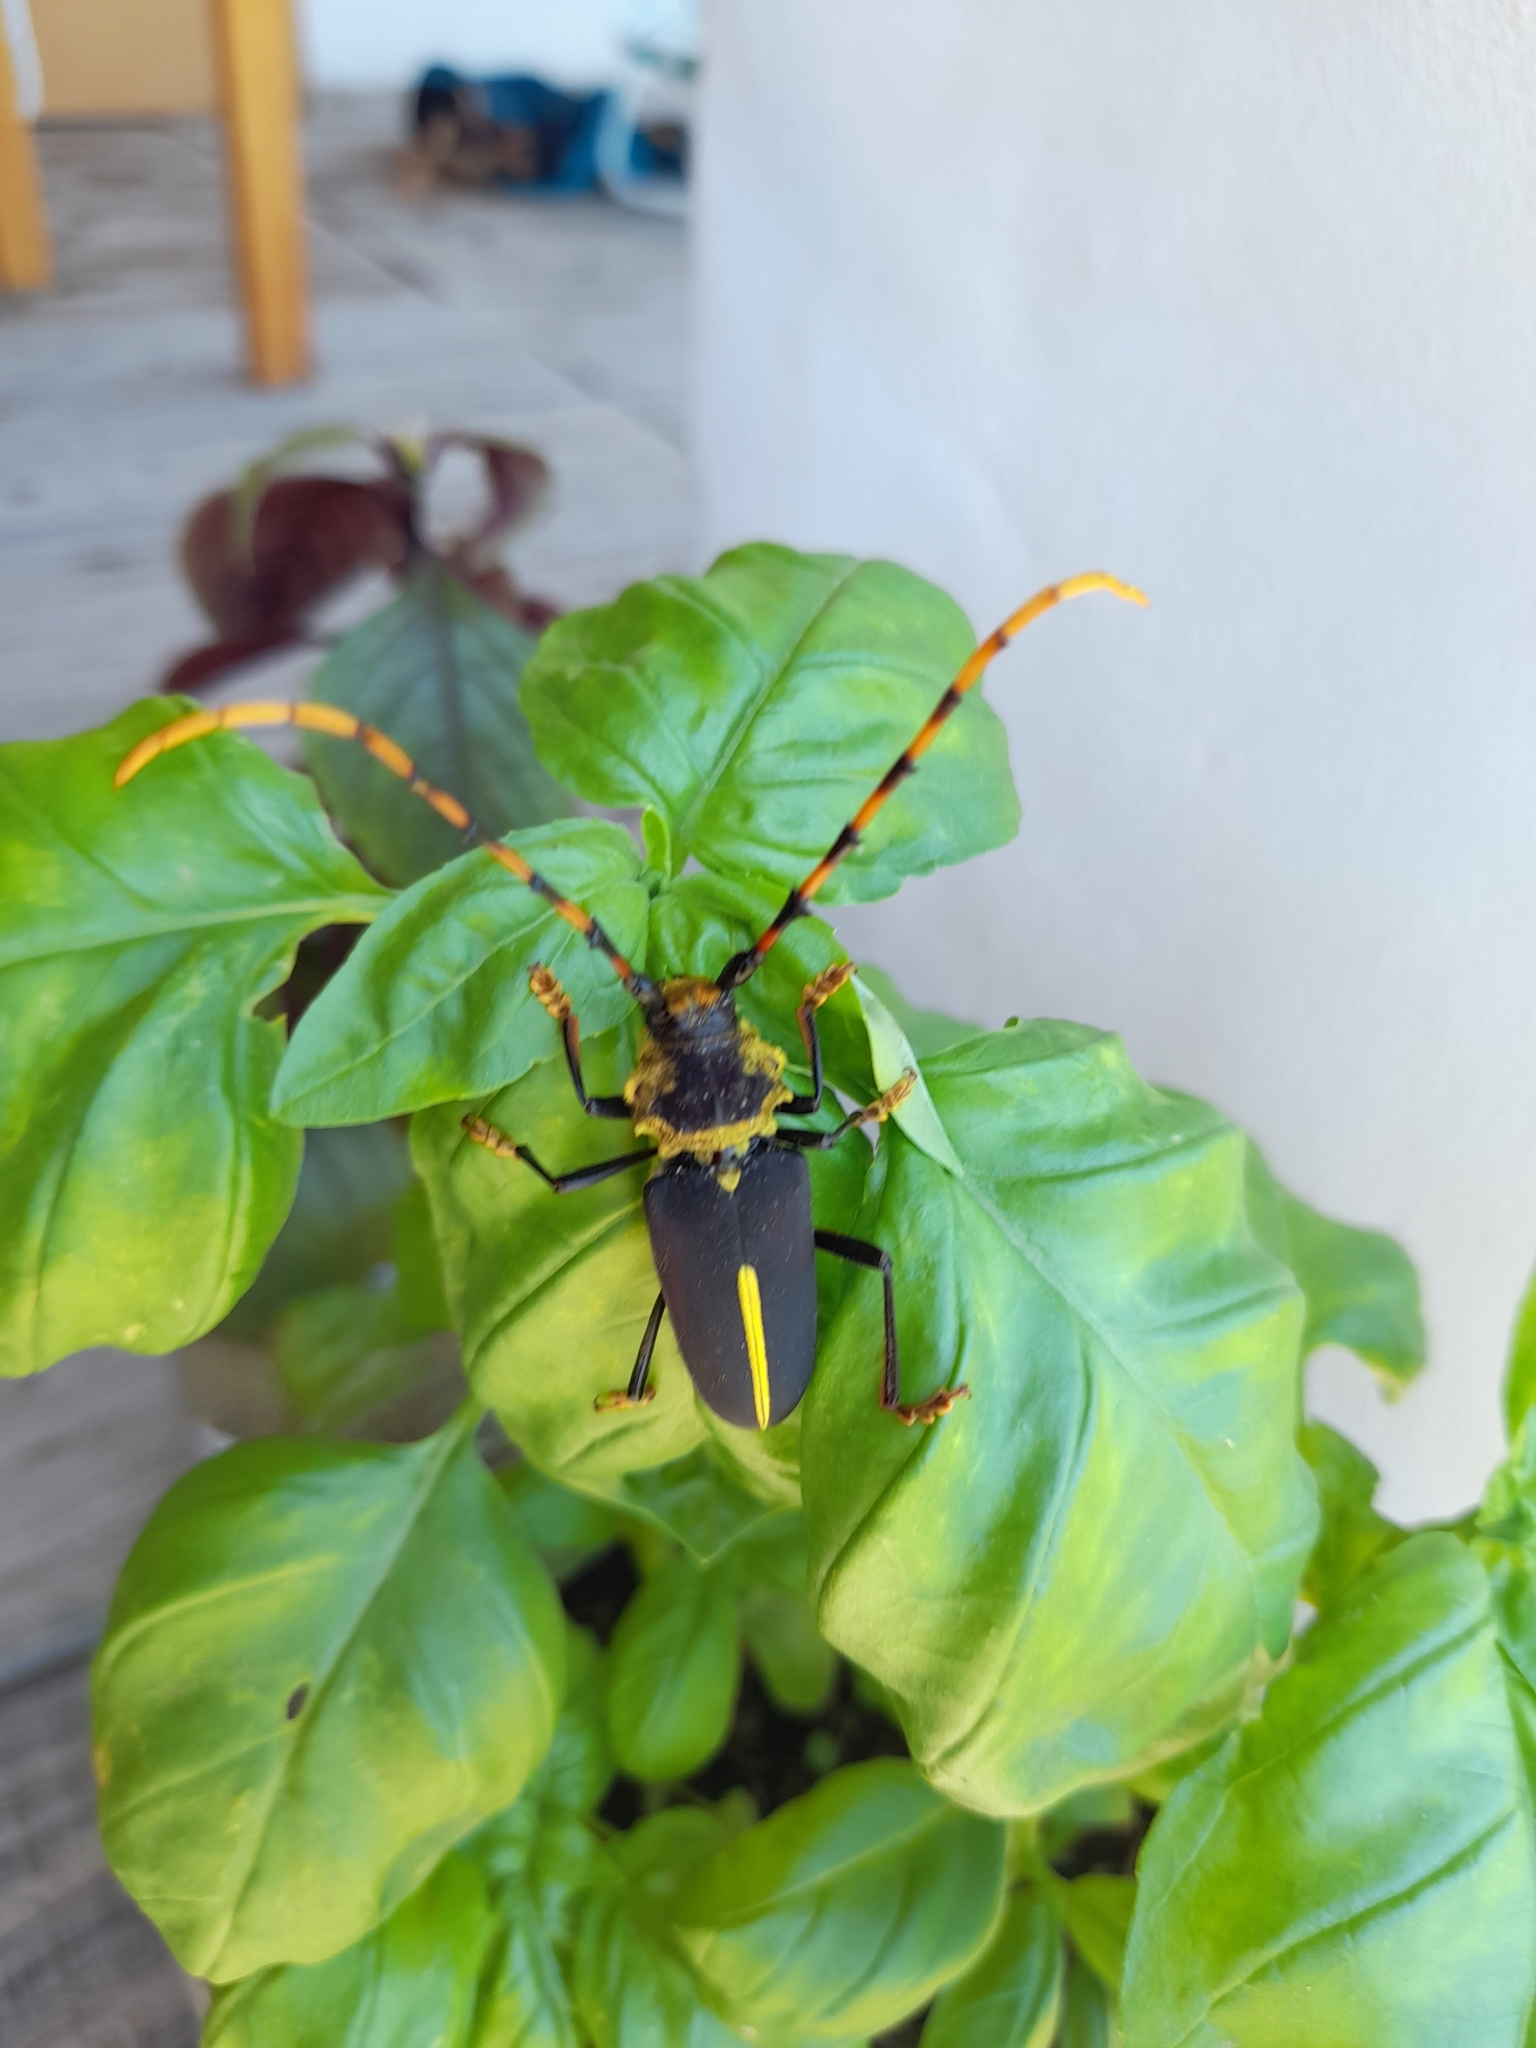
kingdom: Animalia
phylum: Arthropoda
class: Insecta
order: Coleoptera
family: Cerambycidae
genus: Dorcacerus
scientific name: Dorcacerus barbatus
